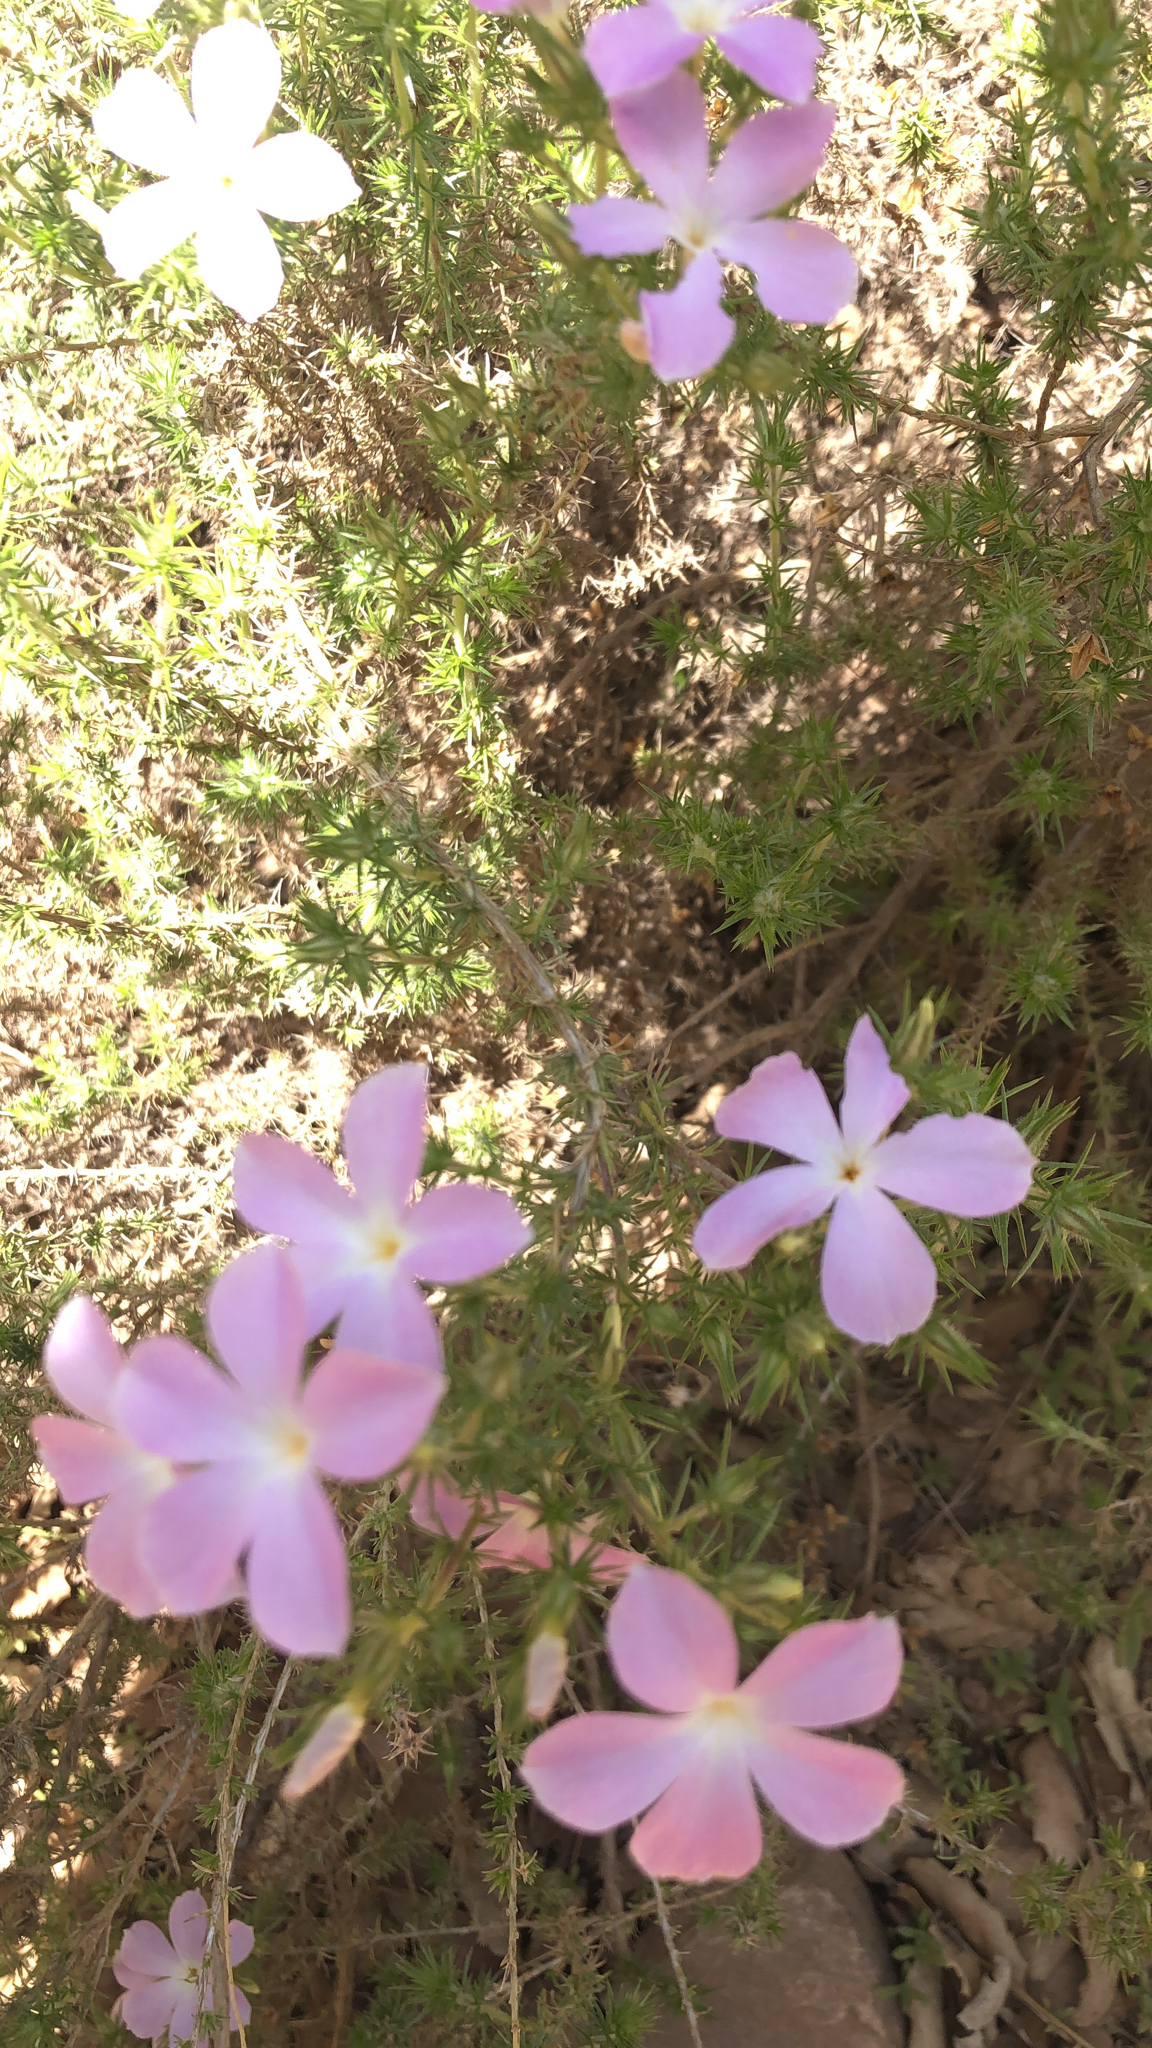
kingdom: Plantae
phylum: Tracheophyta
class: Magnoliopsida
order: Ericales
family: Polemoniaceae
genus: Linanthus
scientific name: Linanthus californicus
